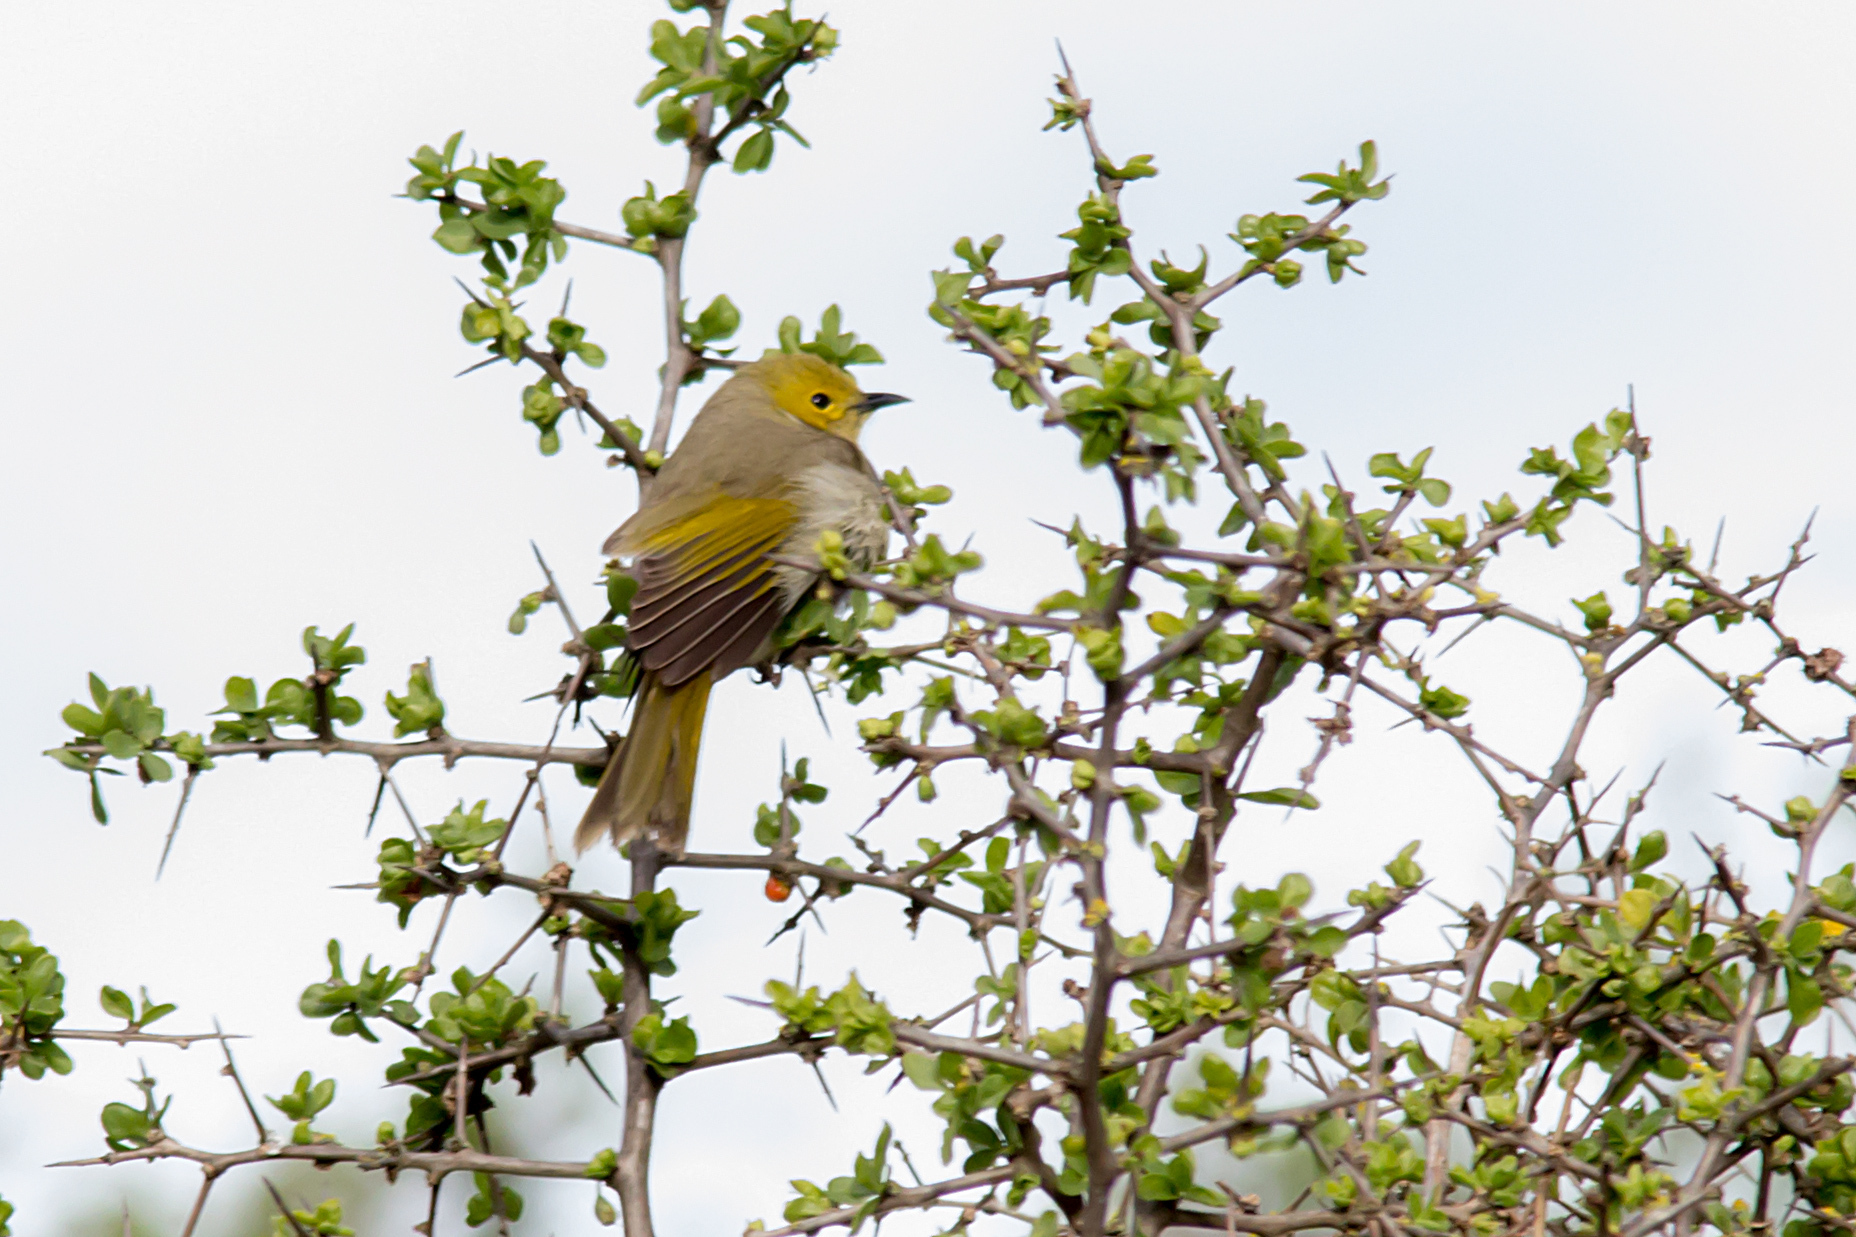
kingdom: Animalia
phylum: Chordata
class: Aves
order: Passeriformes
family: Meliphagidae
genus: Ptilotula
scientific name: Ptilotula penicillata
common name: White-plumed honeyeater
